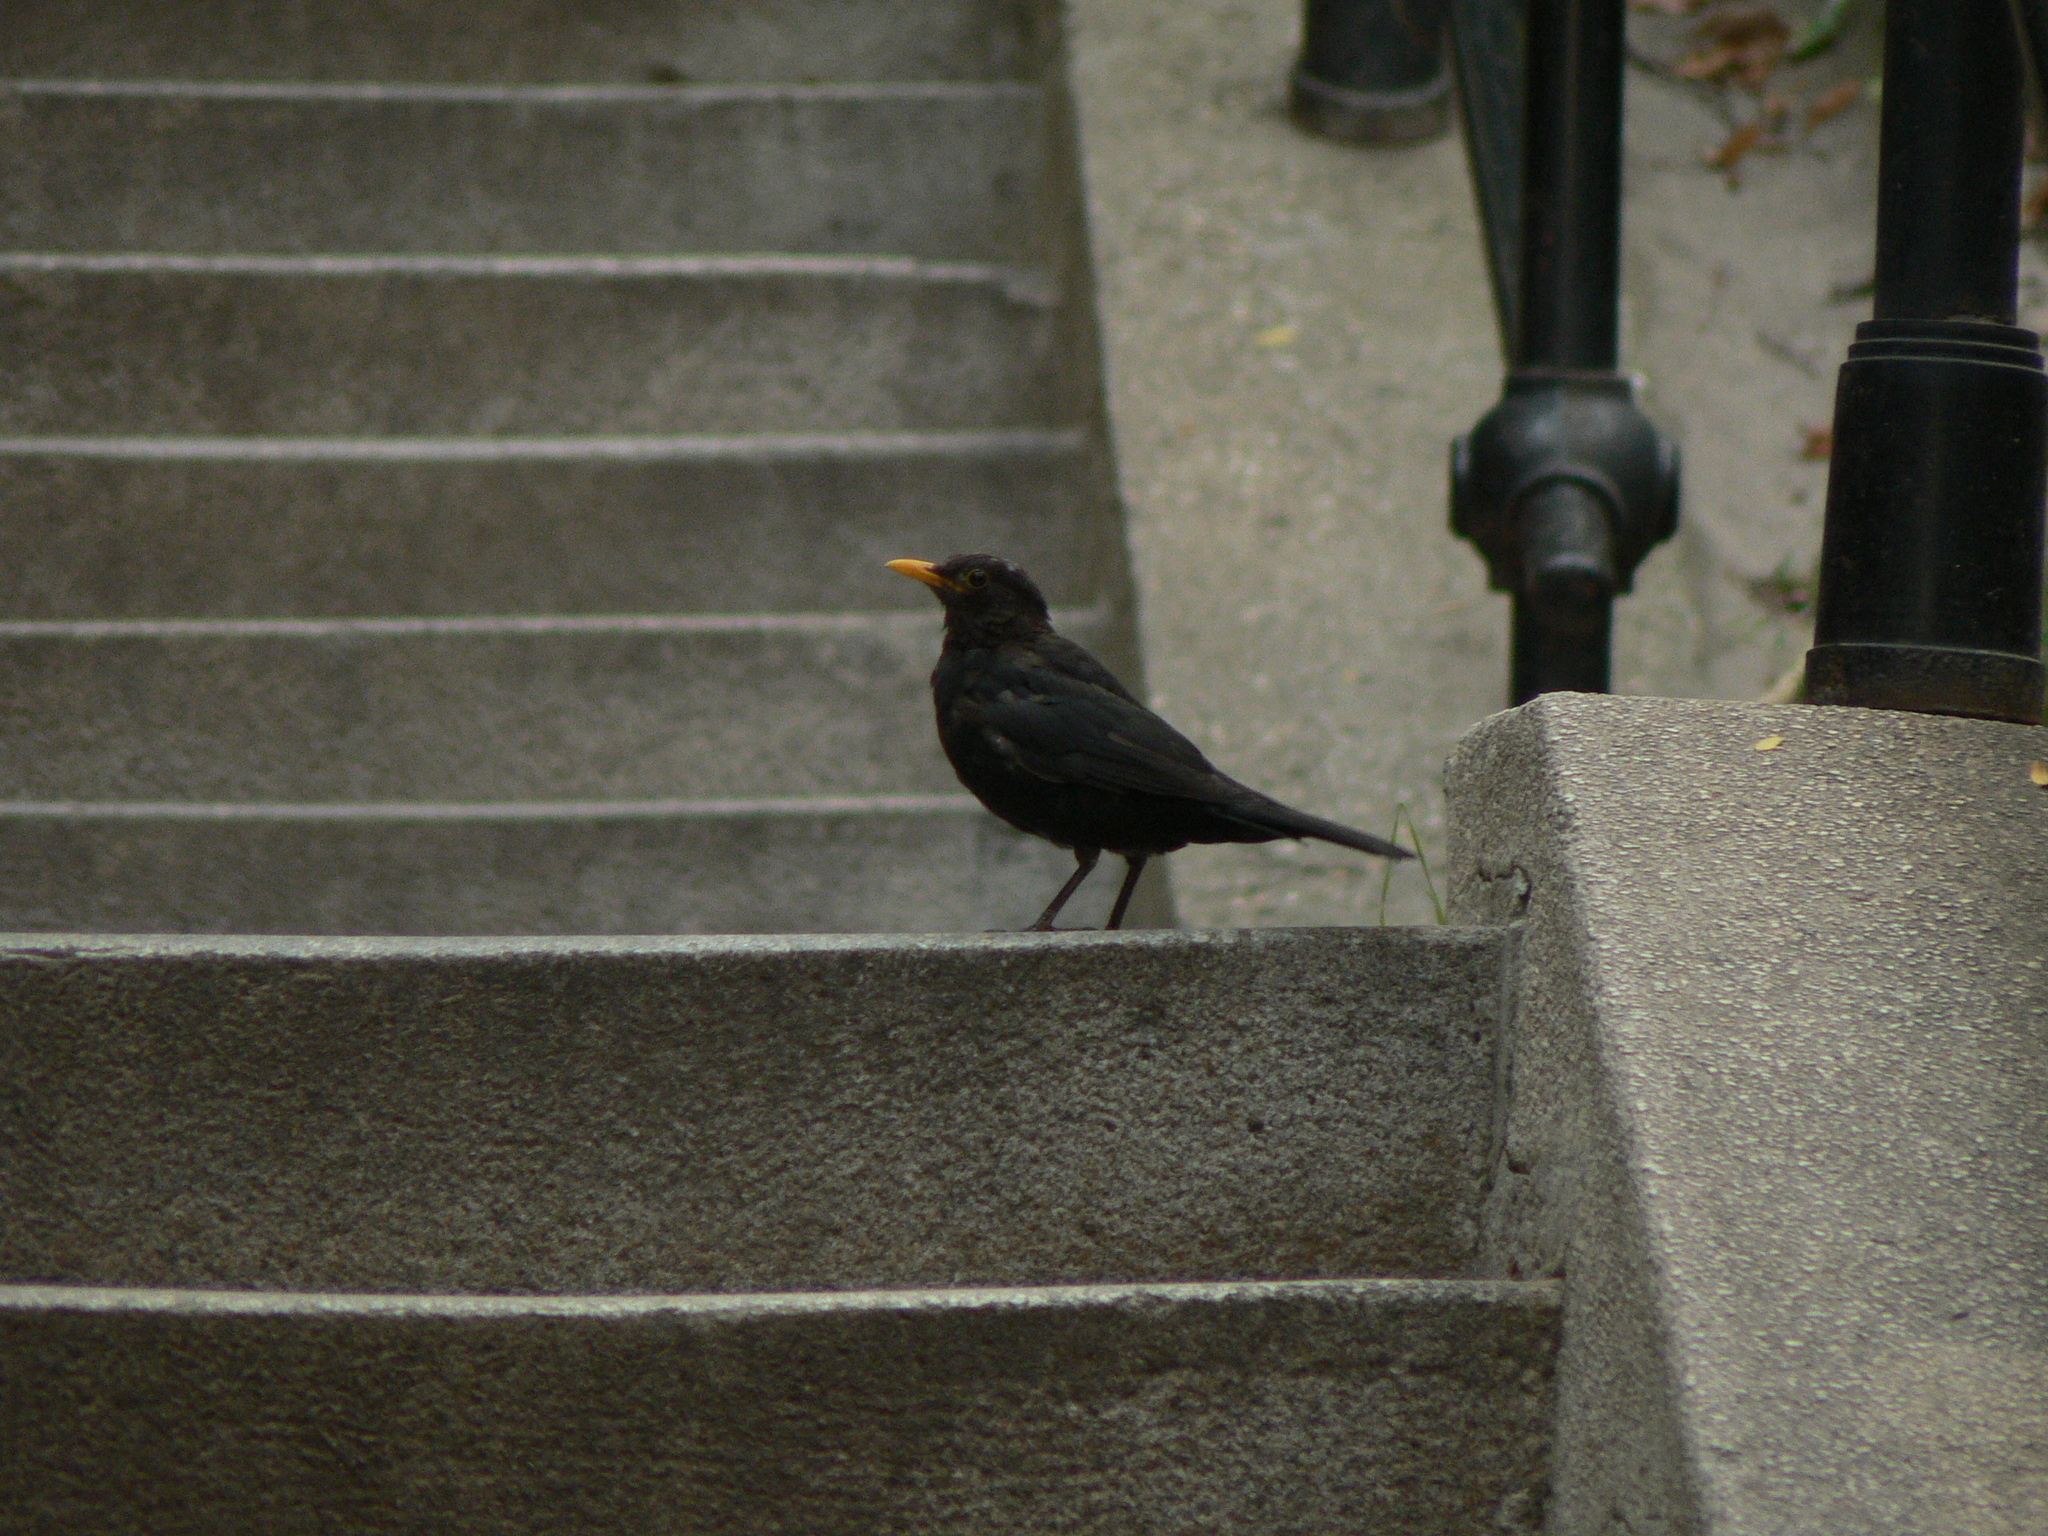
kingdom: Animalia
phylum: Chordata
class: Aves
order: Passeriformes
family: Turdidae
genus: Turdus
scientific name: Turdus merula
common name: Common blackbird
